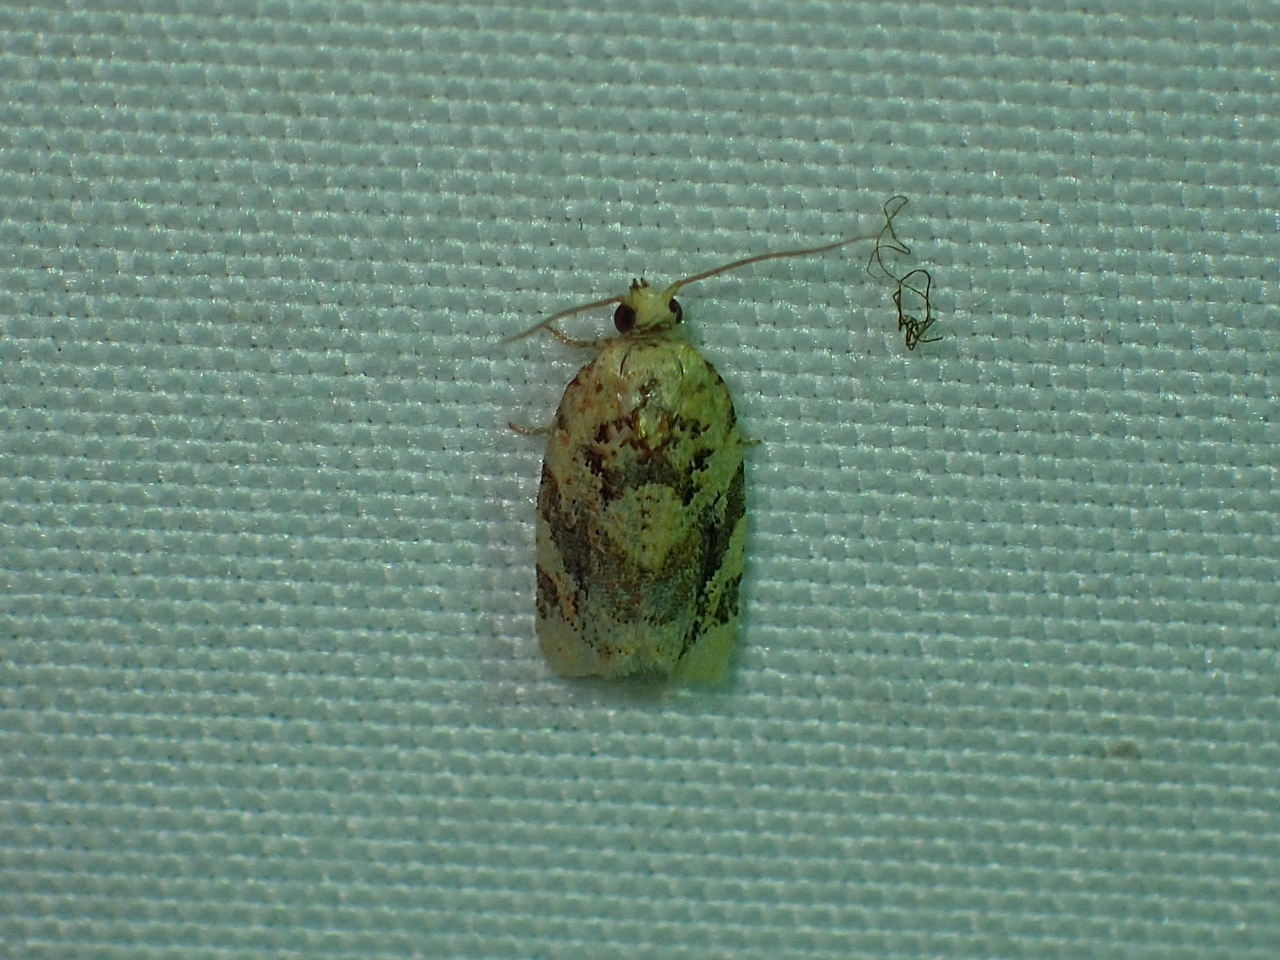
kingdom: Animalia
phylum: Arthropoda
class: Insecta
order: Lepidoptera
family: Tortricidae
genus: Argyrotaenia
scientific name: Argyrotaenia velutinana
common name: Red-banded leafroller moth
